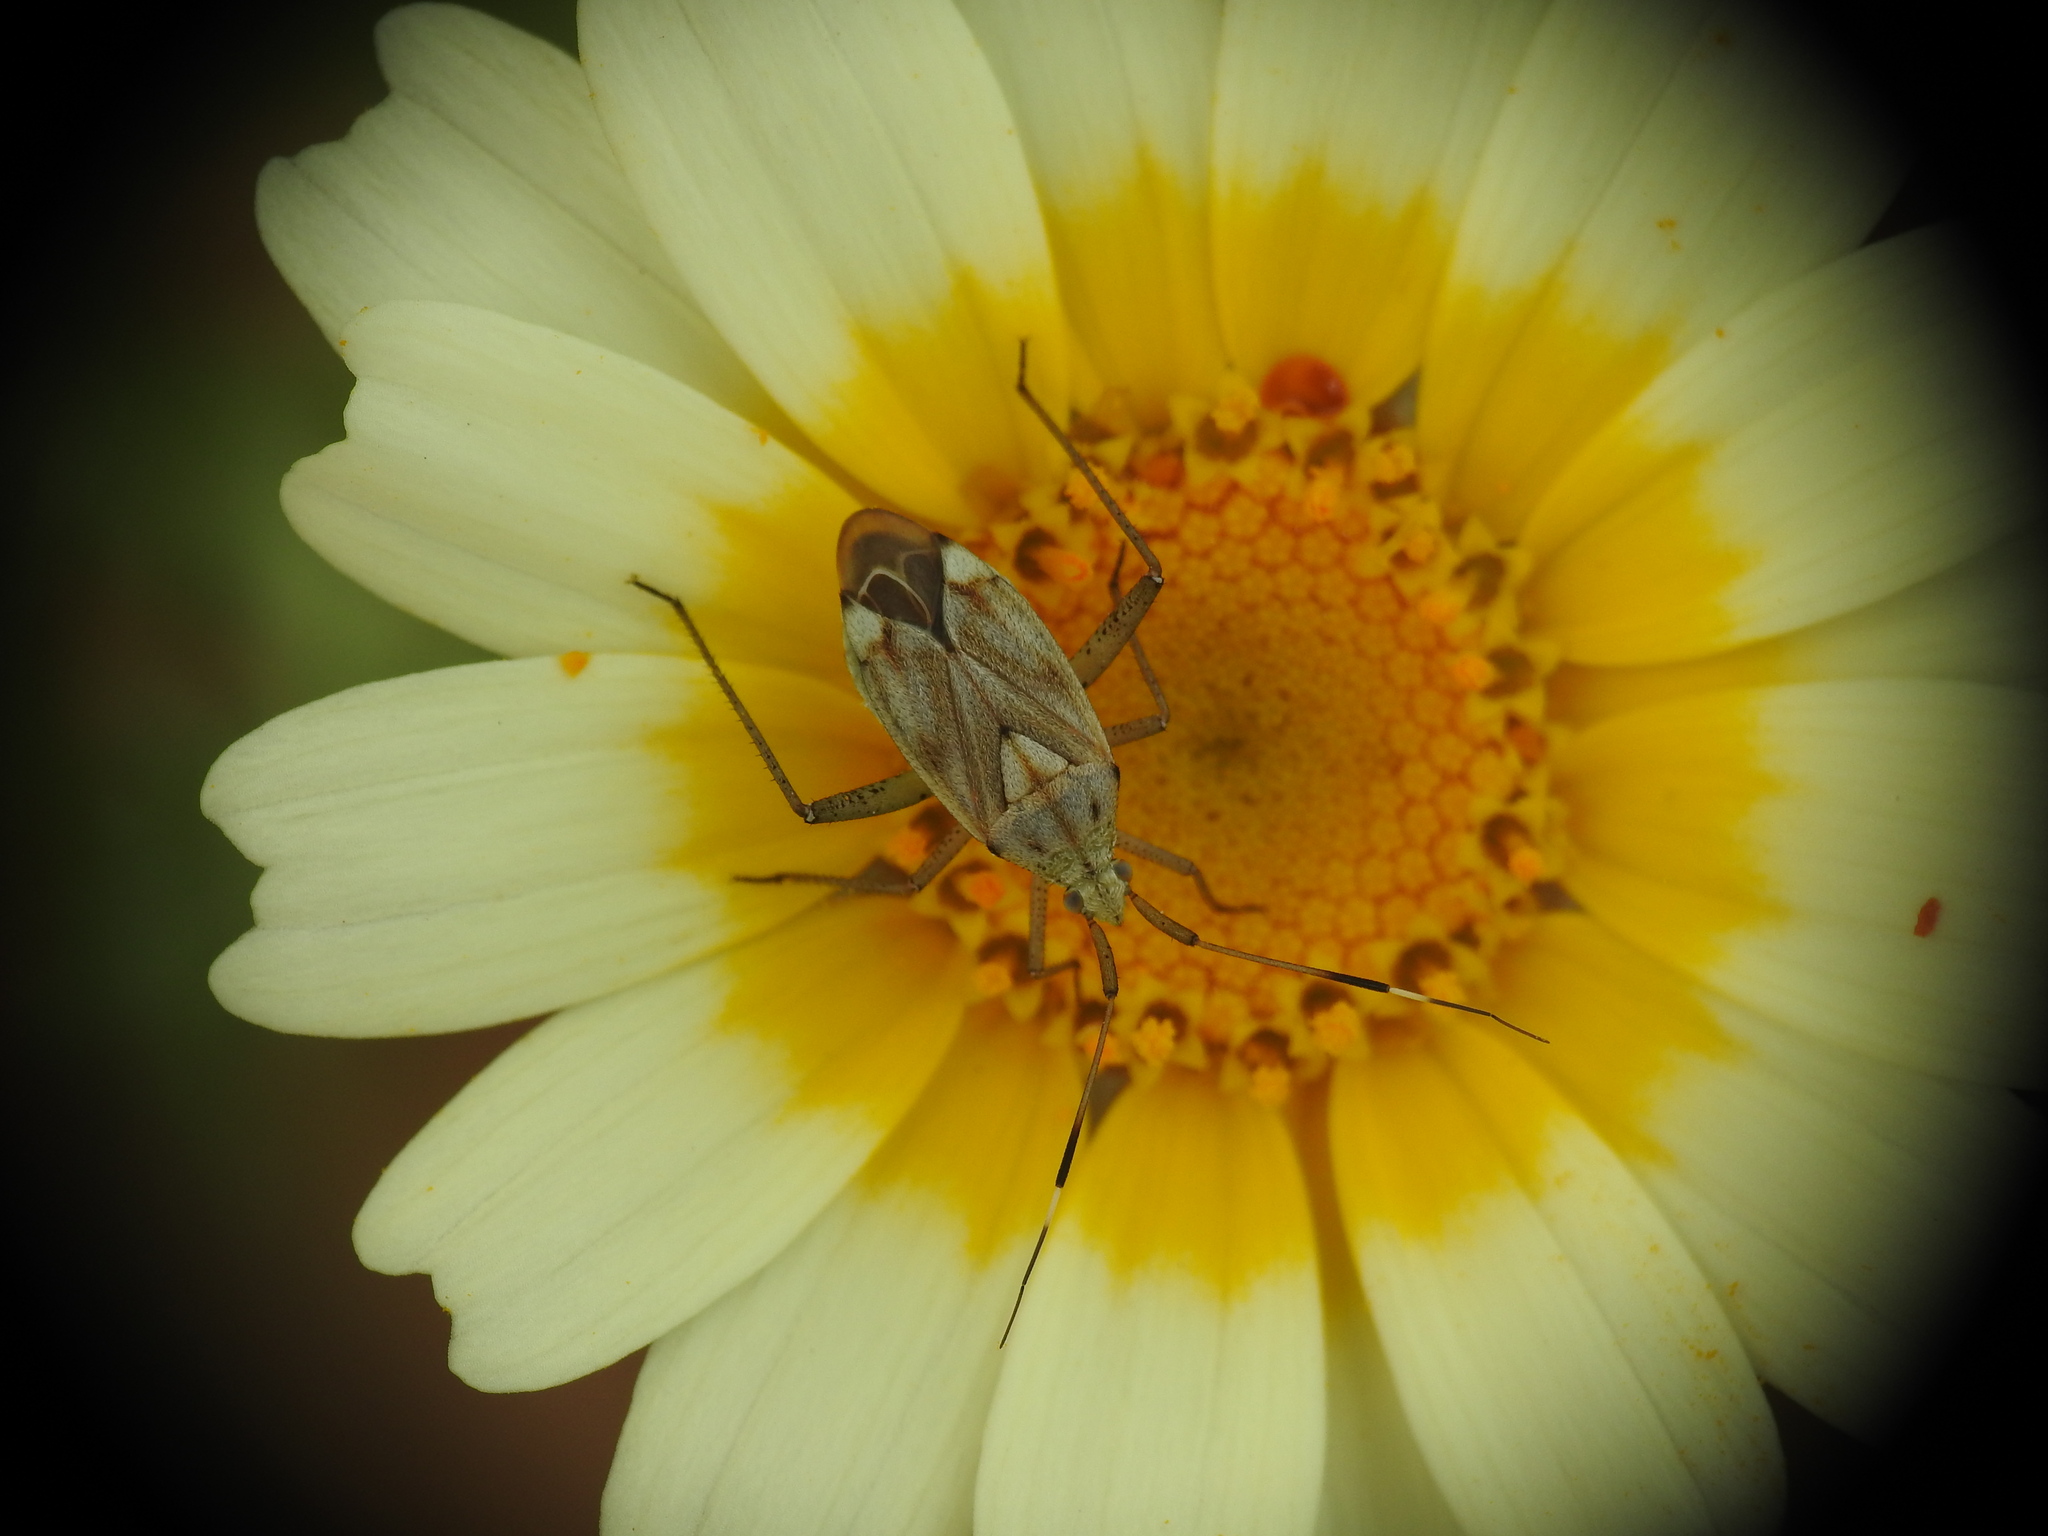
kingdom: Animalia
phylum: Arthropoda
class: Insecta
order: Hemiptera
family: Miridae
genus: Closterotomus
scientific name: Closterotomus histrio
